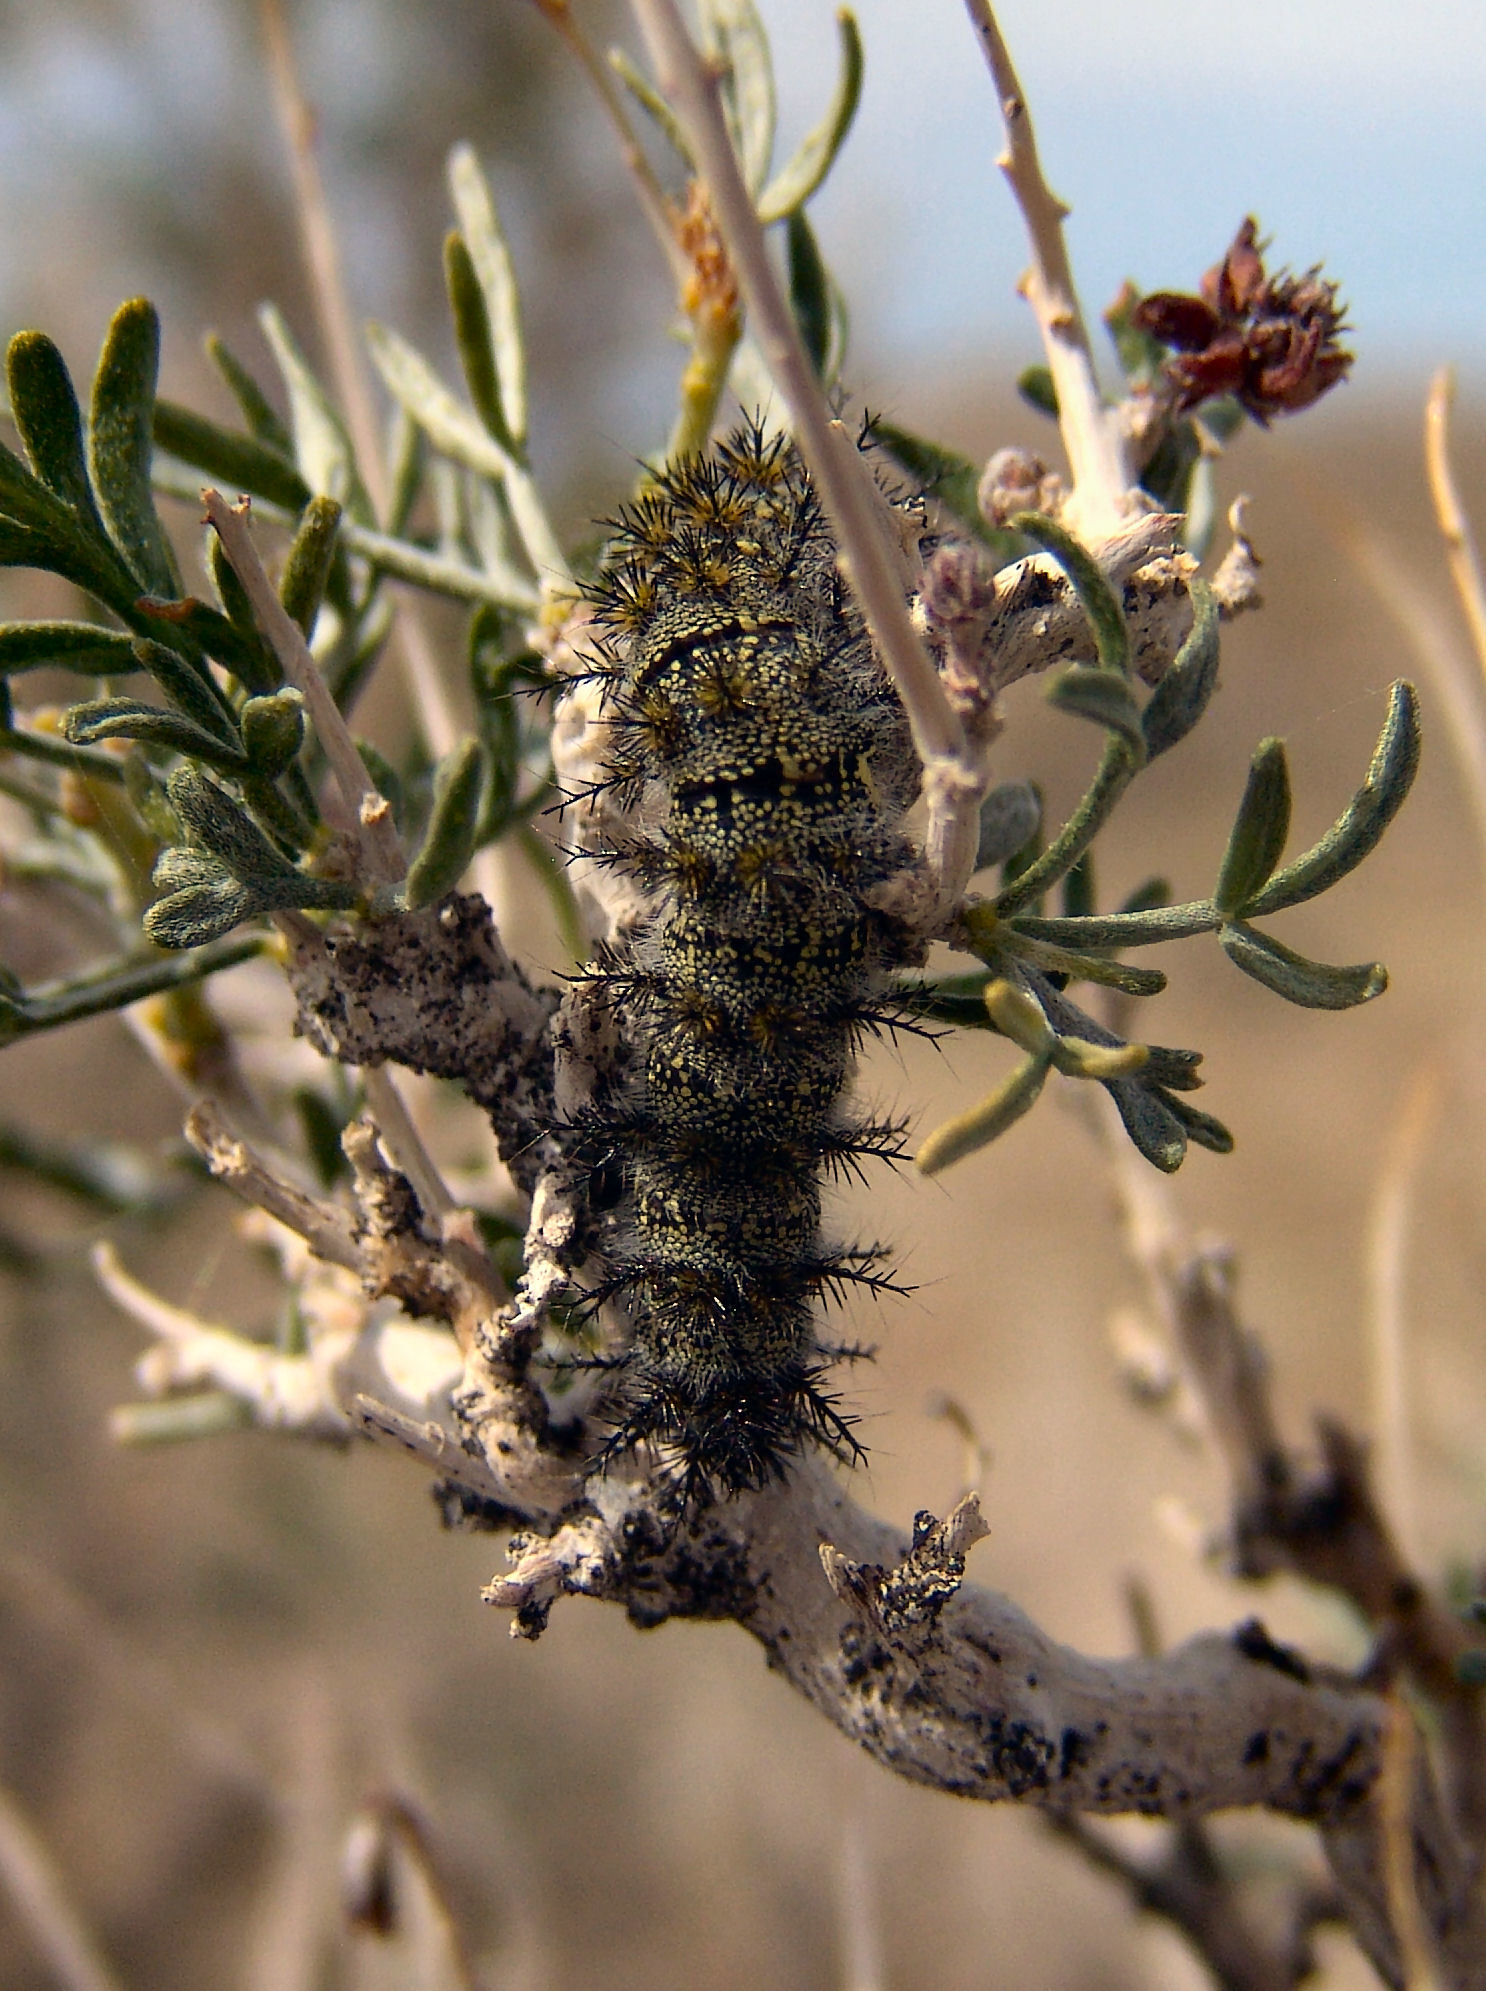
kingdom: Animalia
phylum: Arthropoda
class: Insecta
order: Lepidoptera
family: Saturniidae
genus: Hemileuca
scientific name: Hemileuca burnsi
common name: Burns' buckmoth
